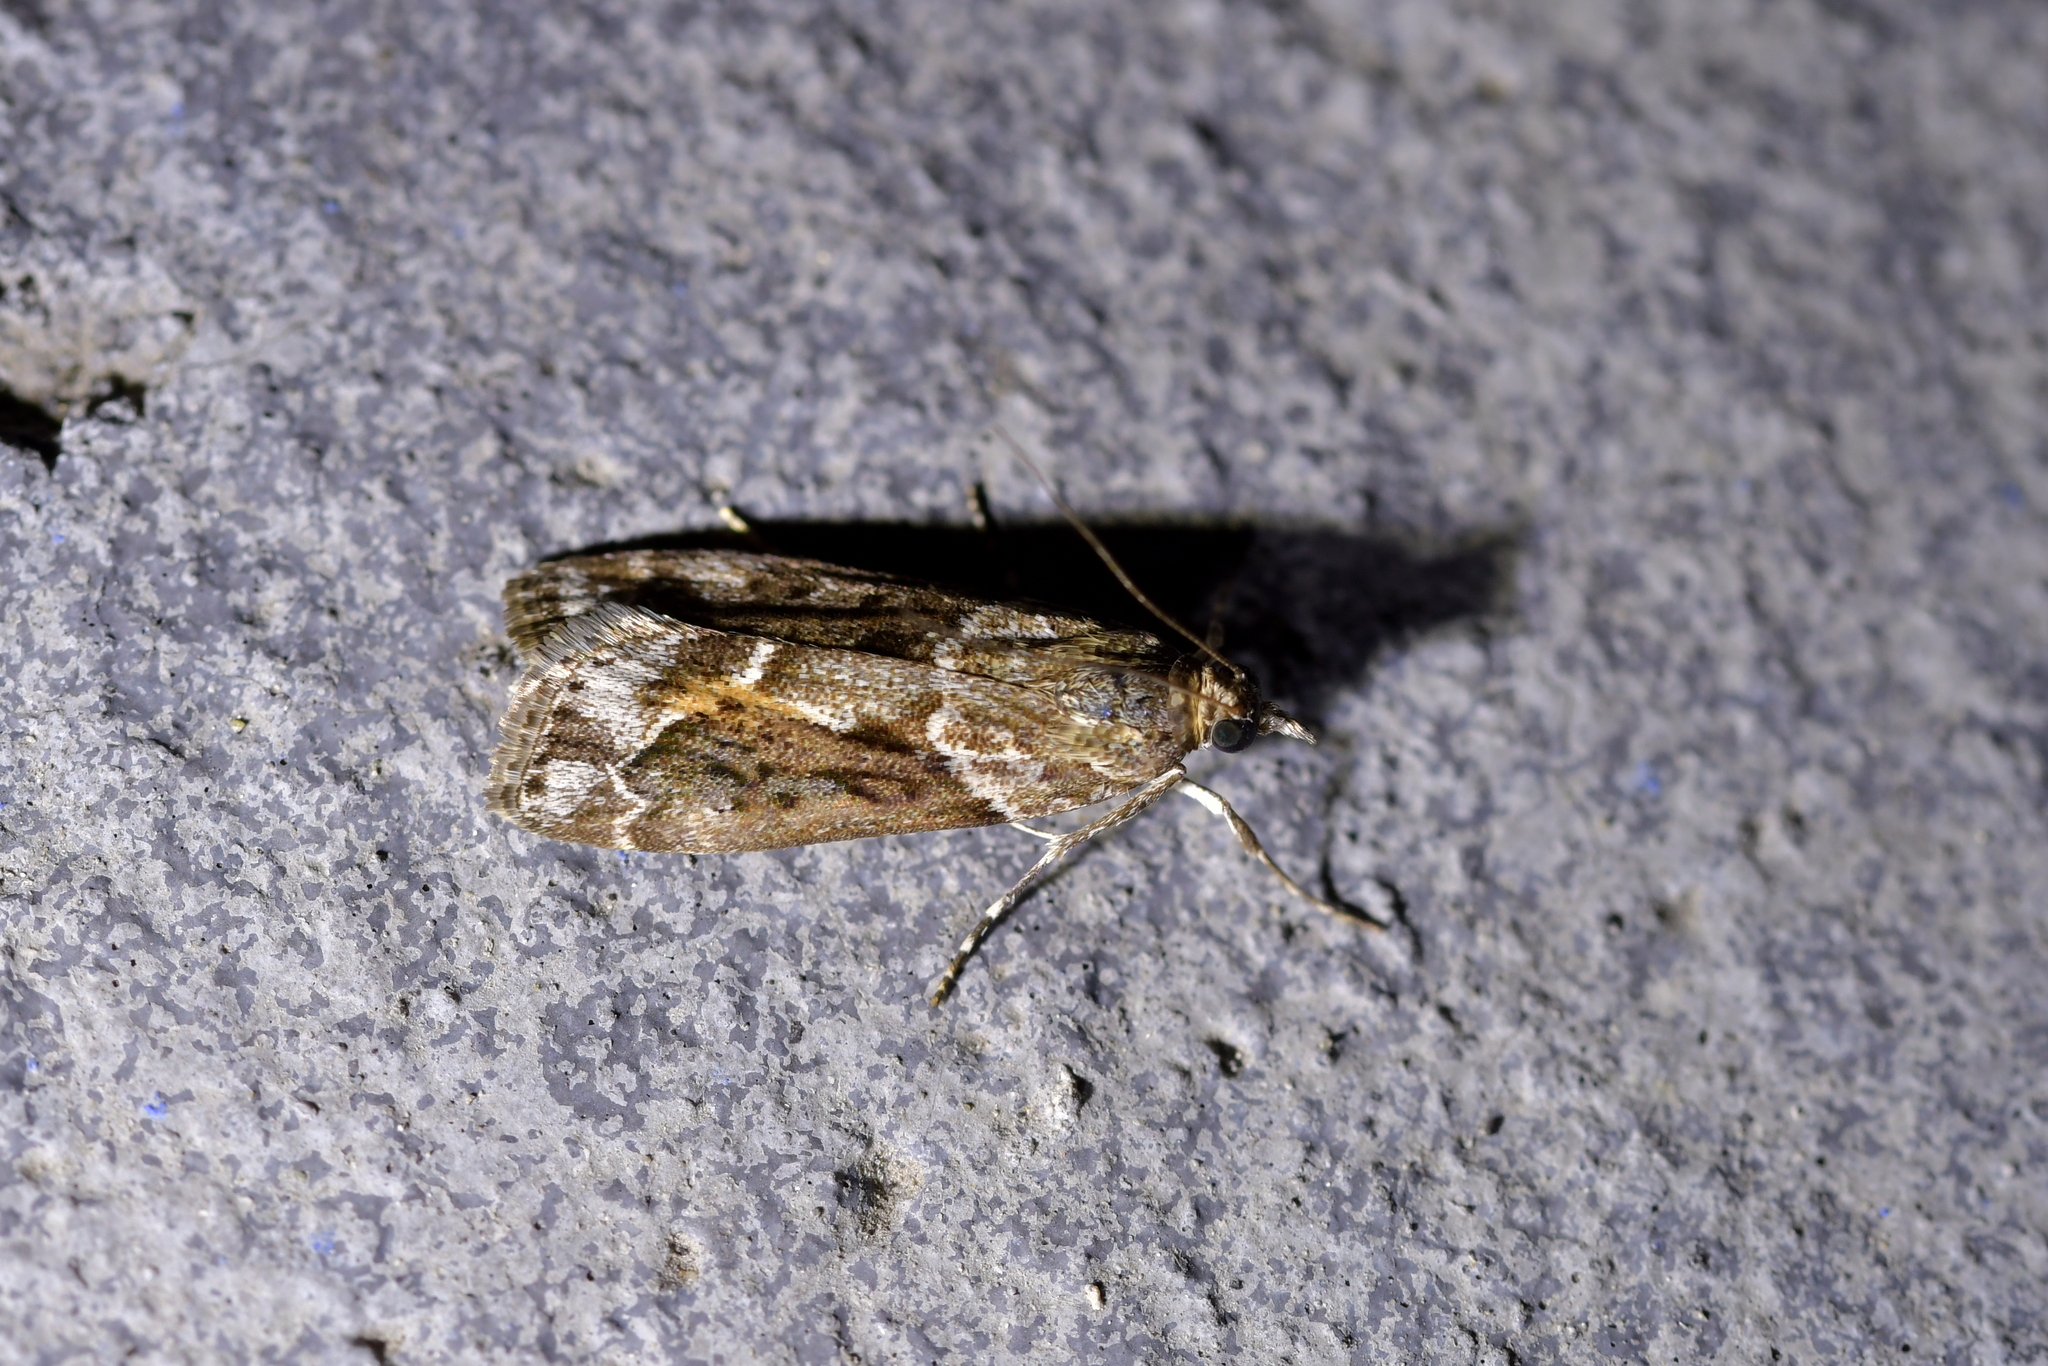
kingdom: Animalia
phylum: Arthropoda
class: Insecta
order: Lepidoptera
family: Crambidae
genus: Eudonia
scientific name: Eudonia submarginalis
